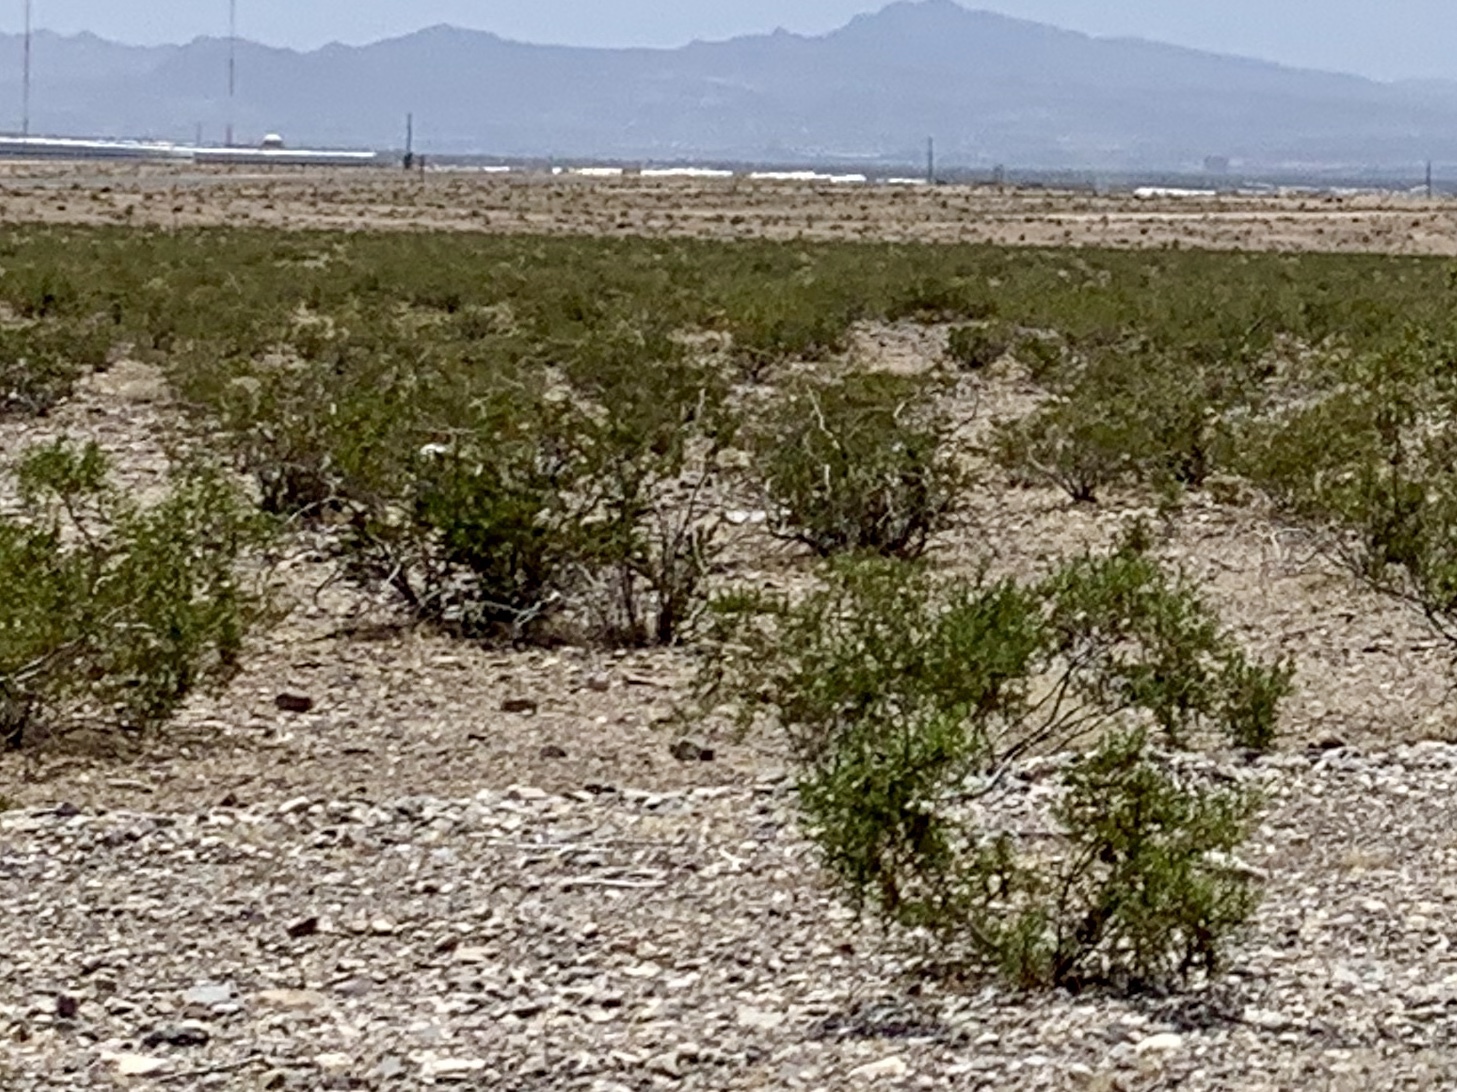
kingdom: Plantae
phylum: Tracheophyta
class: Magnoliopsida
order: Zygophyllales
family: Zygophyllaceae
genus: Larrea
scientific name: Larrea tridentata
